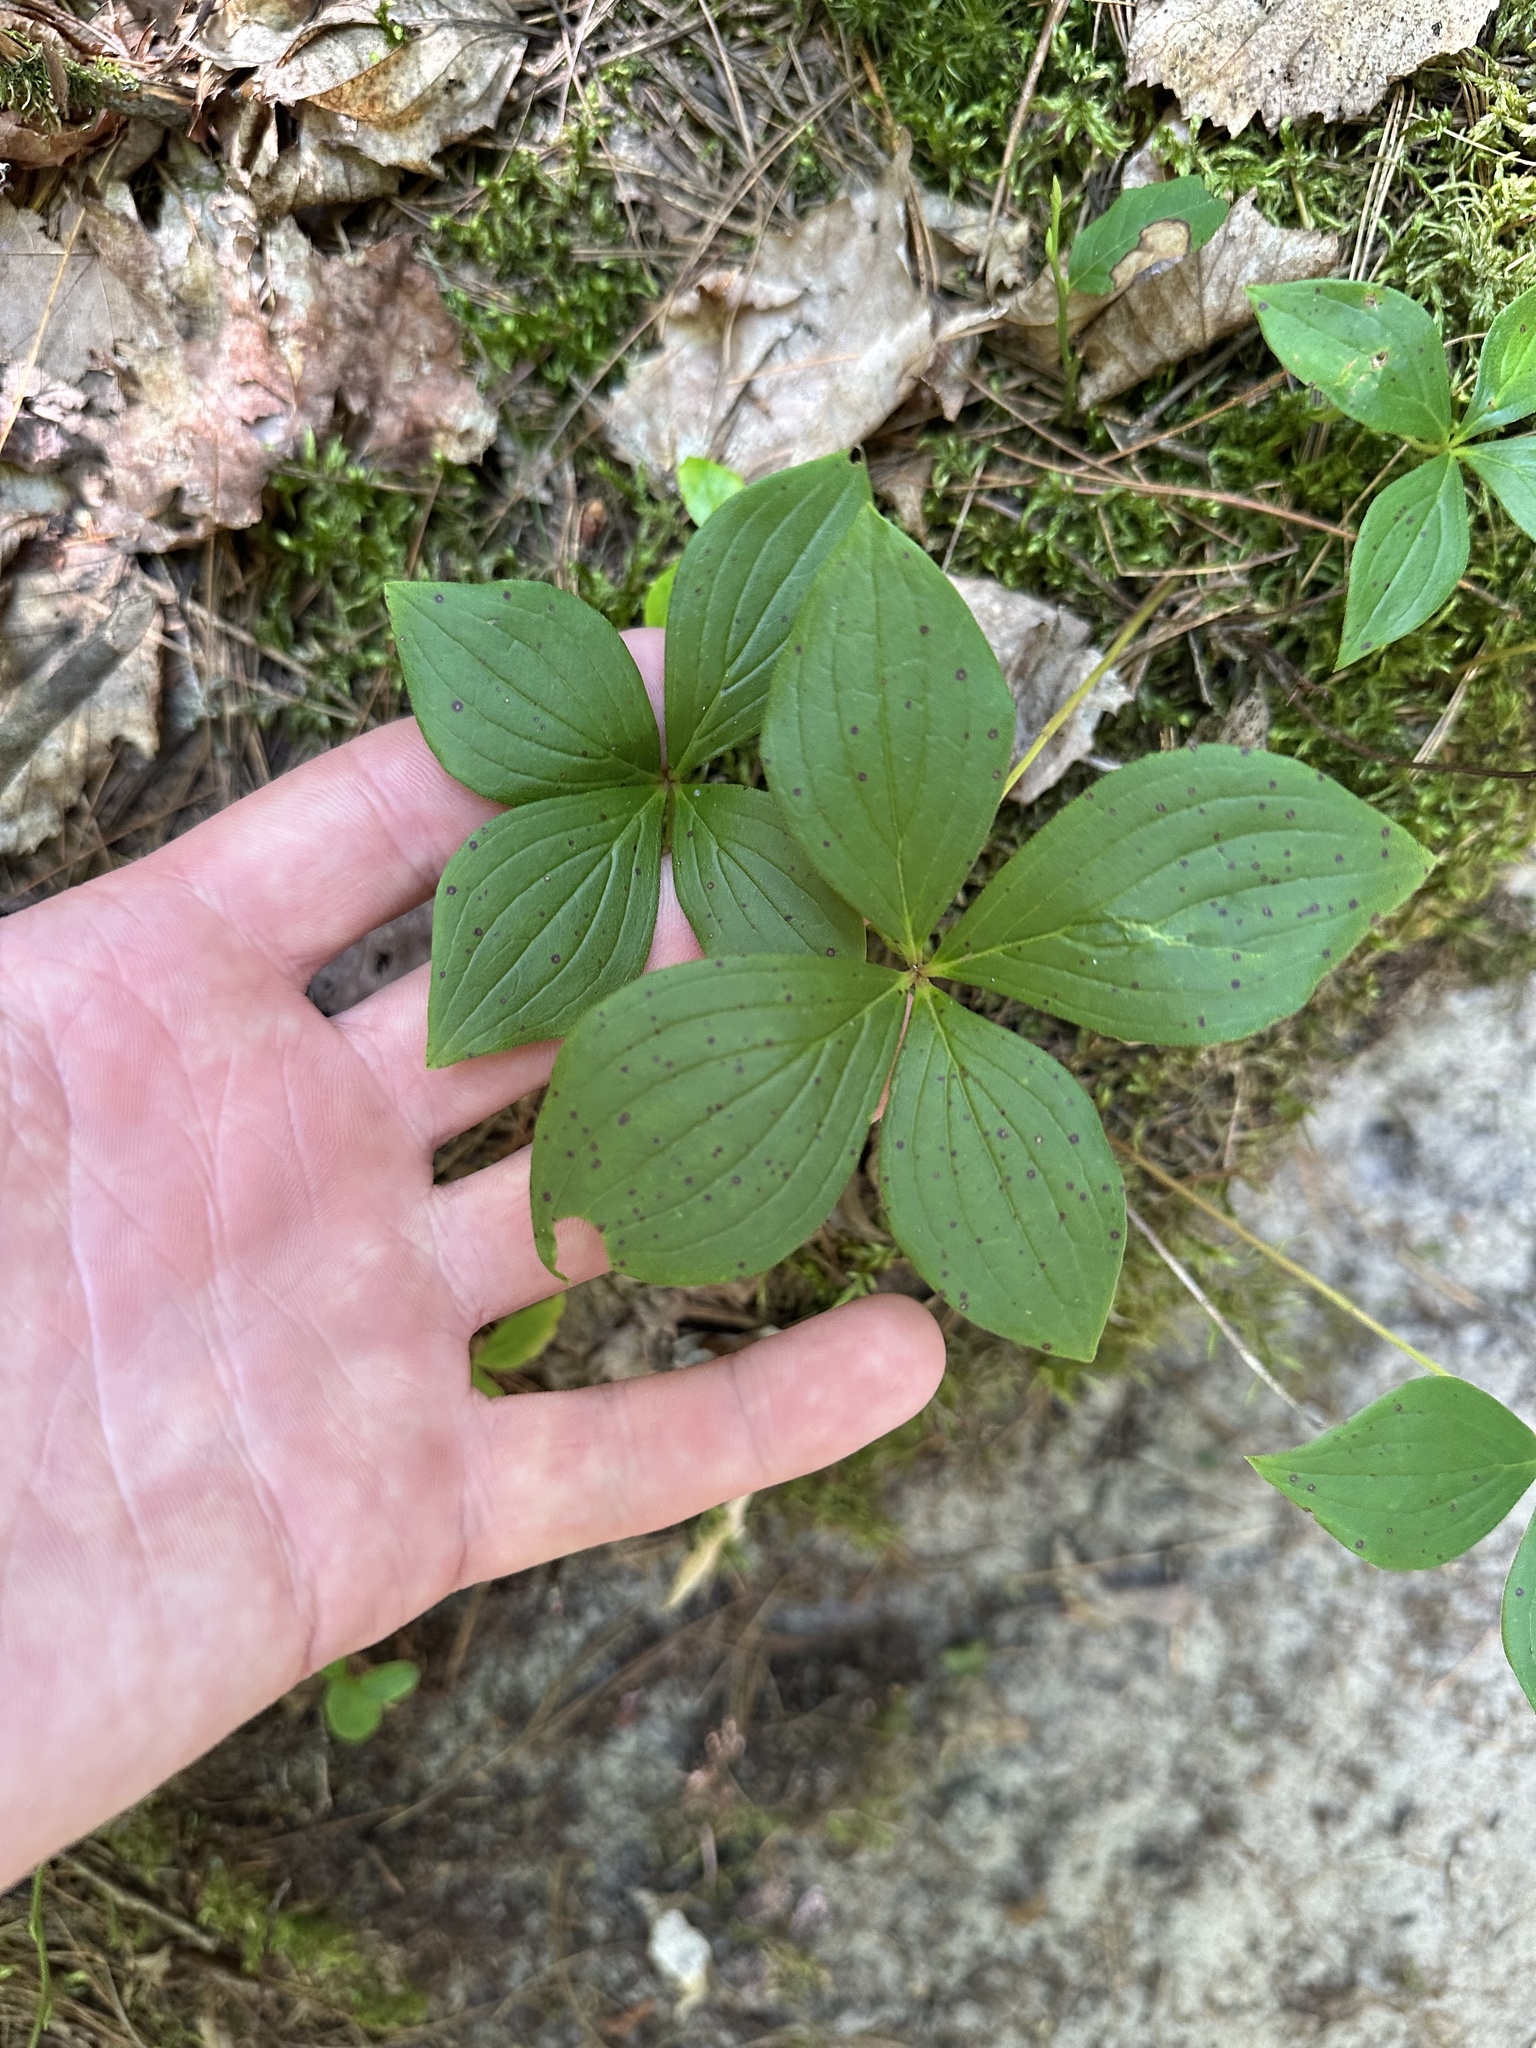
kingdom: Plantae
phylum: Tracheophyta
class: Magnoliopsida
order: Cornales
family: Cornaceae
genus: Cornus
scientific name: Cornus canadensis
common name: Creeping dogwood
